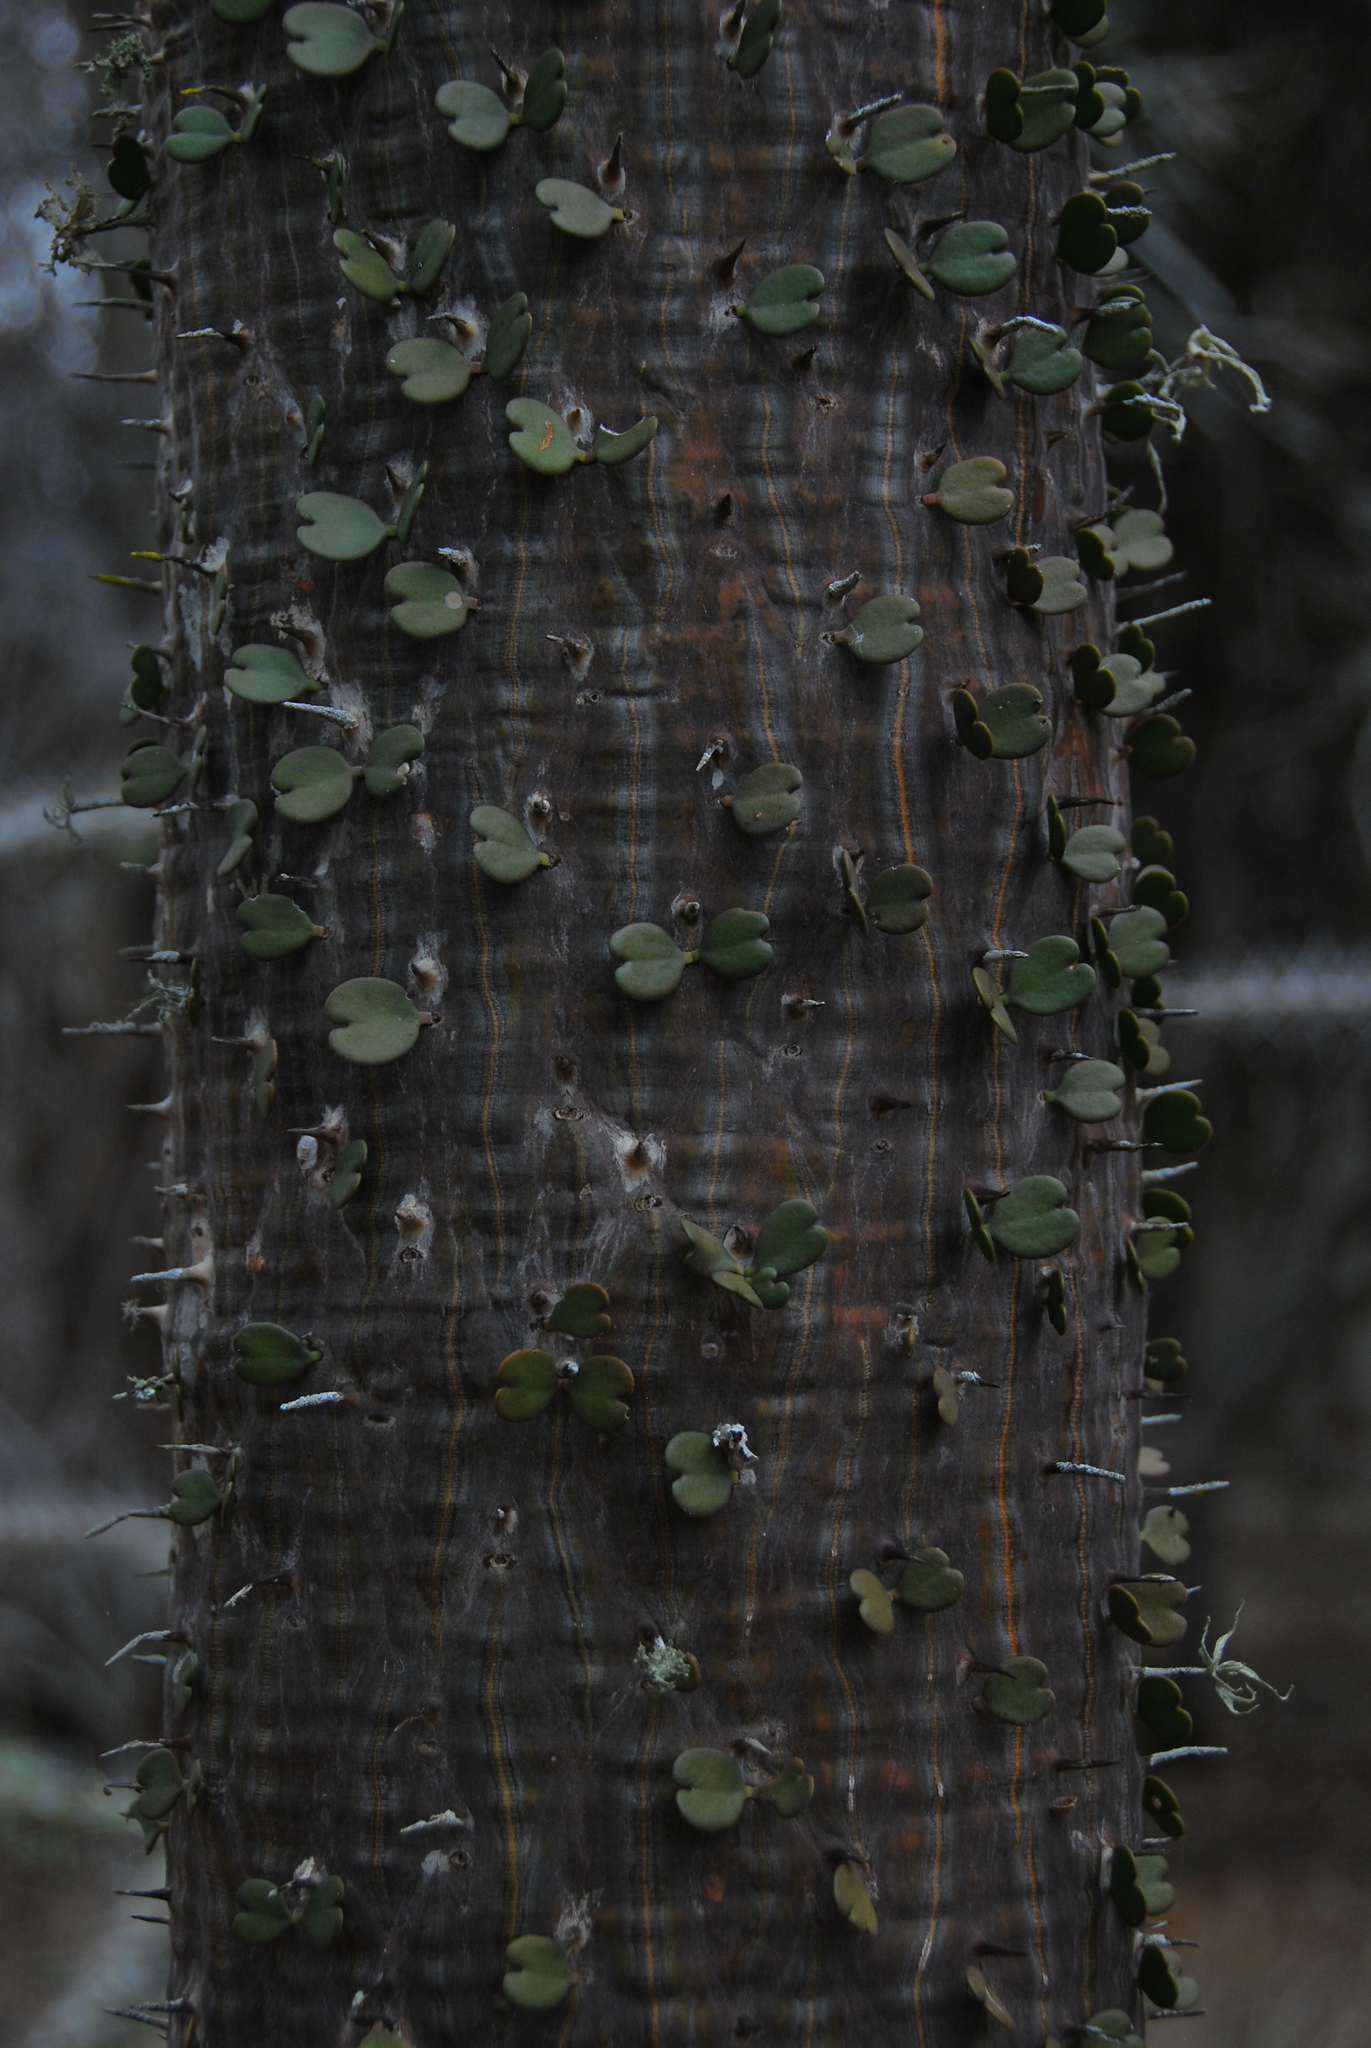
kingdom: Plantae
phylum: Tracheophyta
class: Magnoliopsida
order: Caryophyllales
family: Didiereaceae
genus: Alluaudia
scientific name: Alluaudia ascendens
